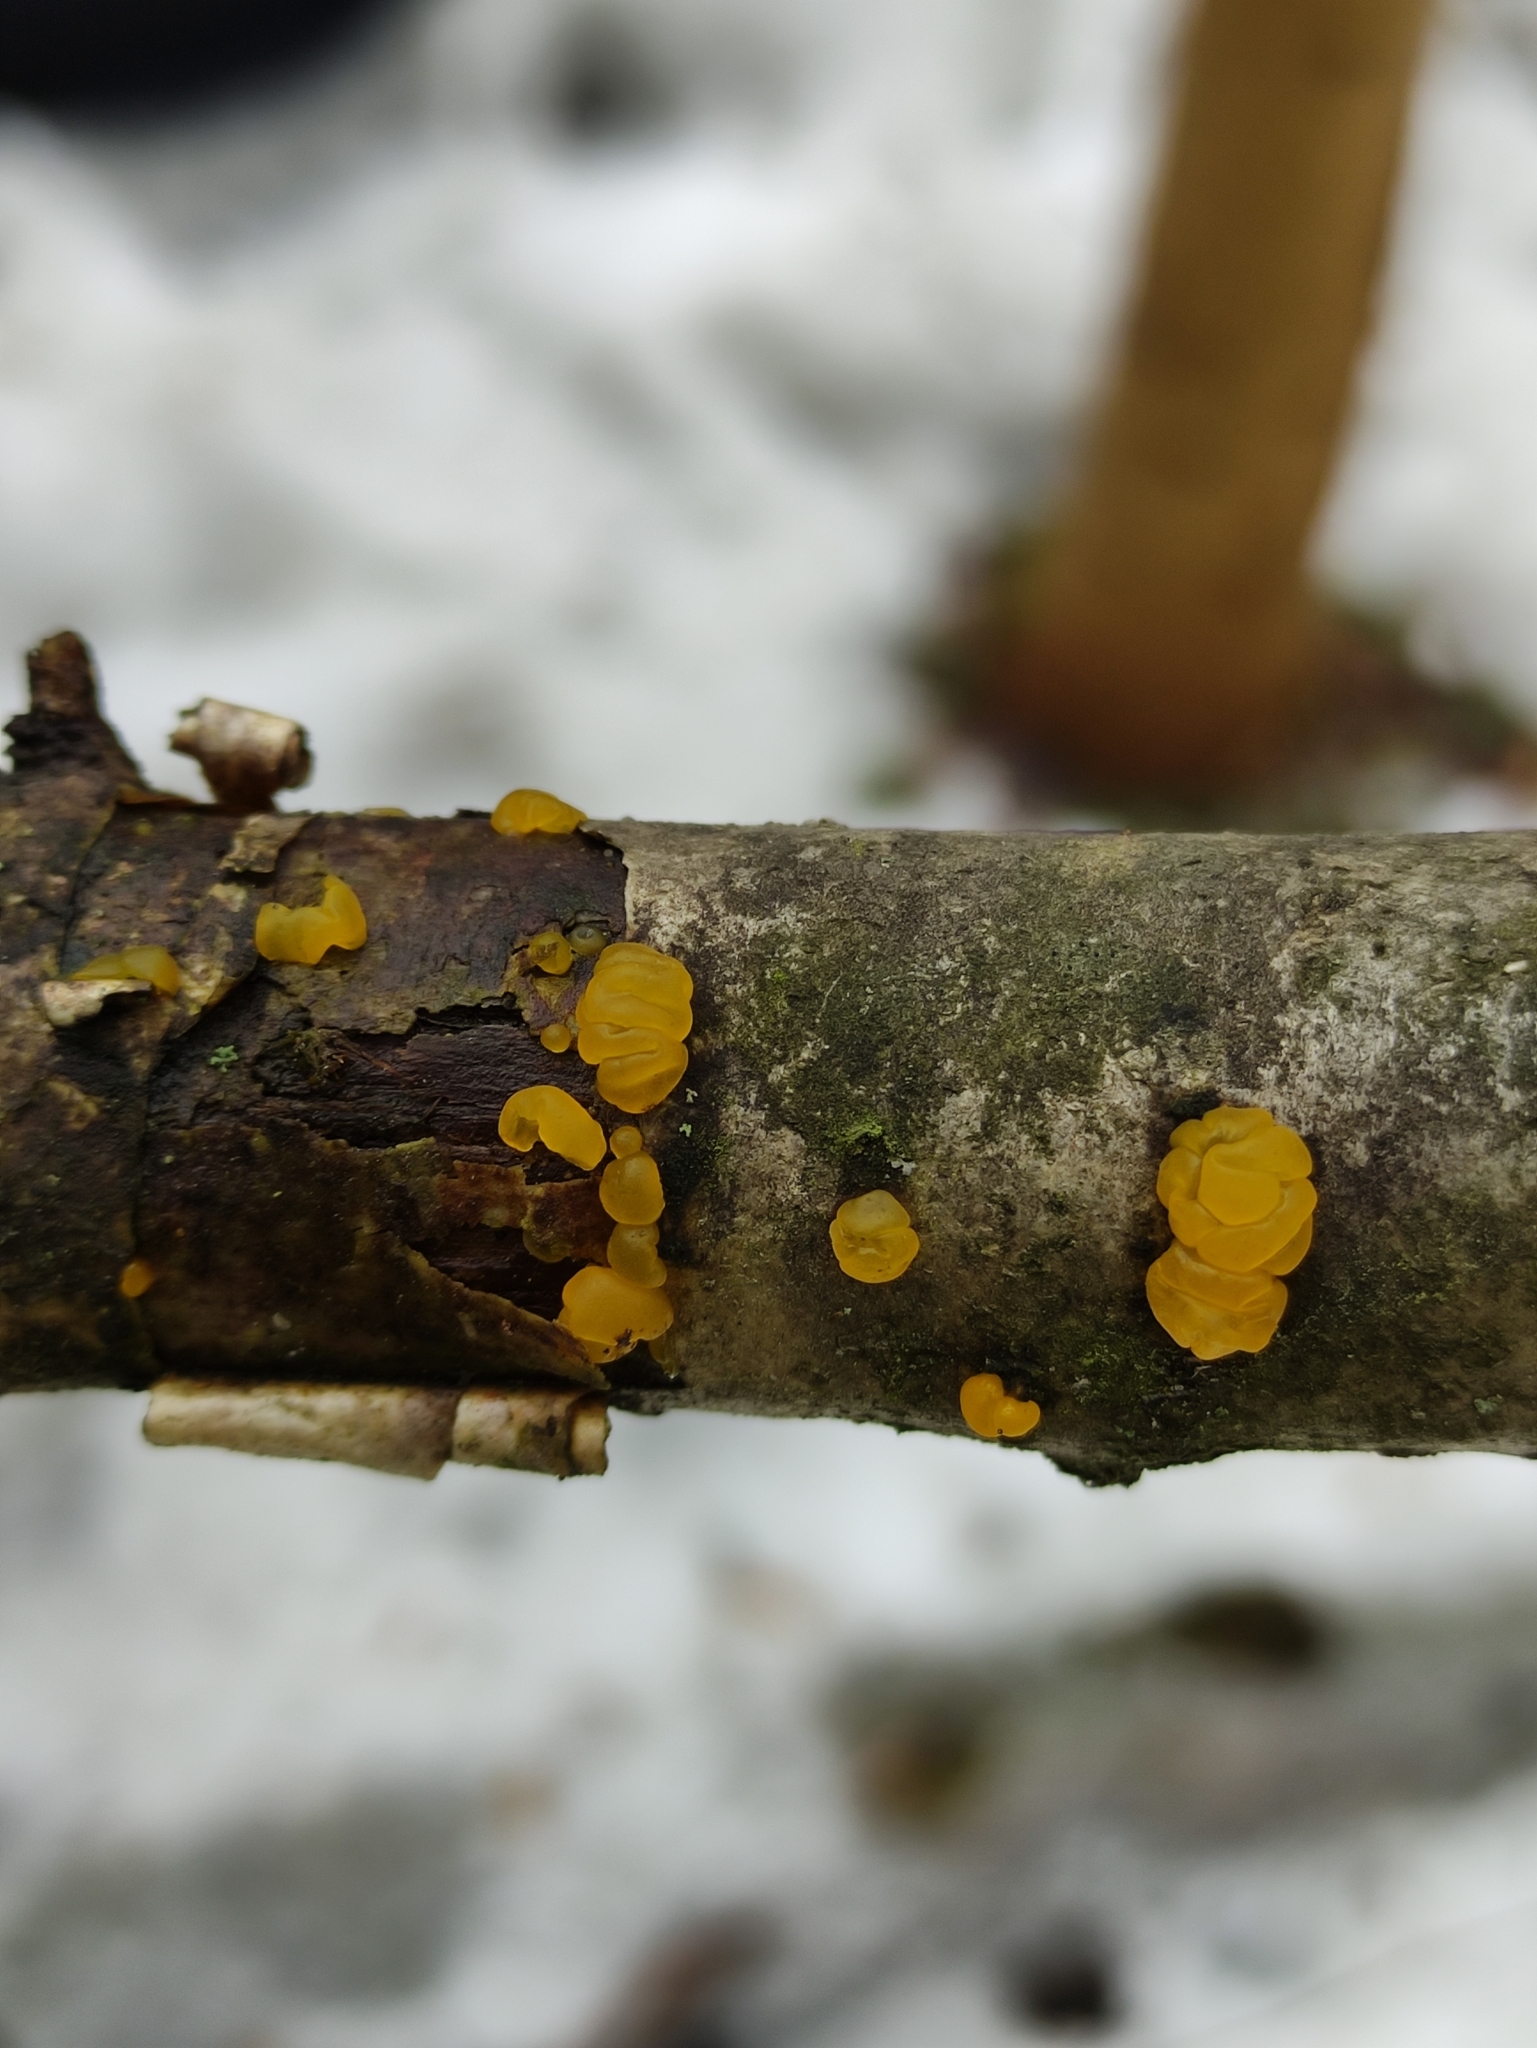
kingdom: Fungi
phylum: Basidiomycota
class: Tremellomycetes
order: Tremellales
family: Tremellaceae
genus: Tremella
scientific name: Tremella mesenterica
